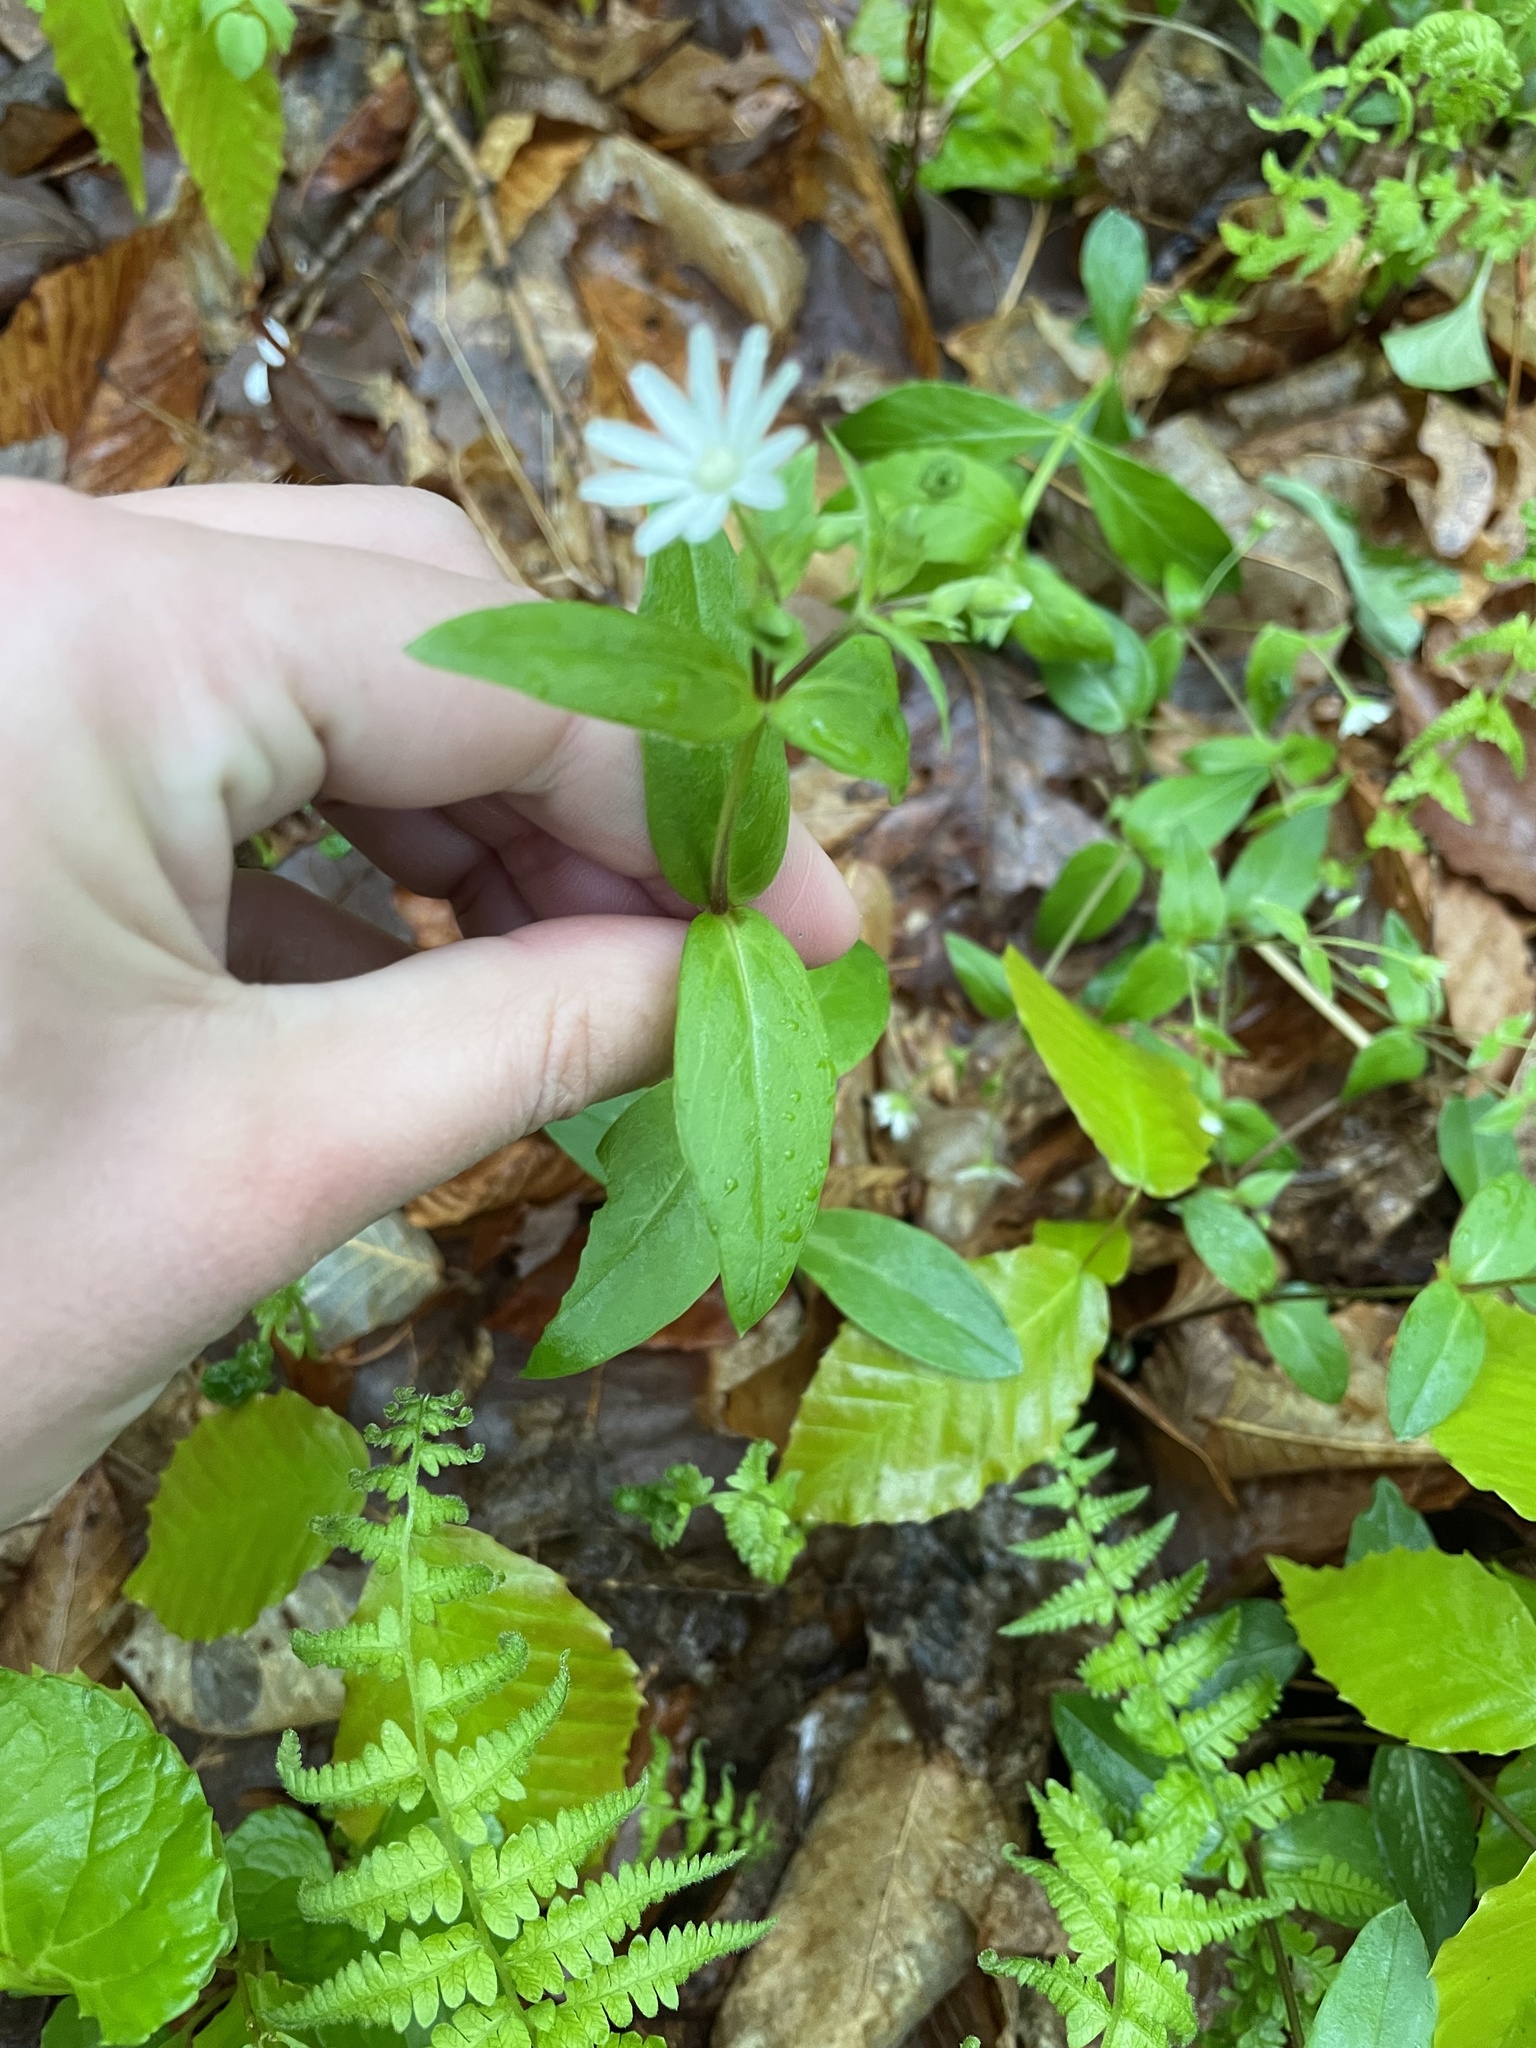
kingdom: Plantae
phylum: Tracheophyta
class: Magnoliopsida
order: Caryophyllales
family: Caryophyllaceae
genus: Stellaria
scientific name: Stellaria pubera
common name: Star chickweed
